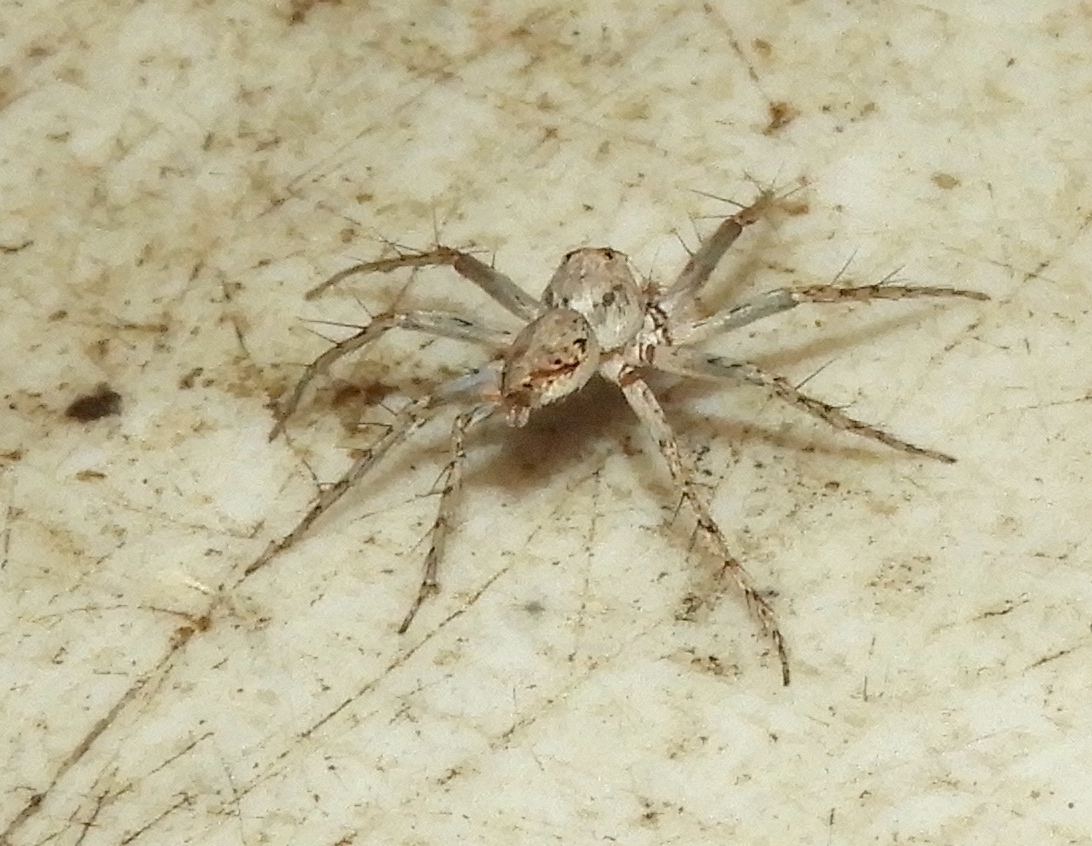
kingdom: Animalia
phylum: Arthropoda
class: Arachnida
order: Araneae
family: Oxyopidae
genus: Hamataliwa
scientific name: Hamataliwa
